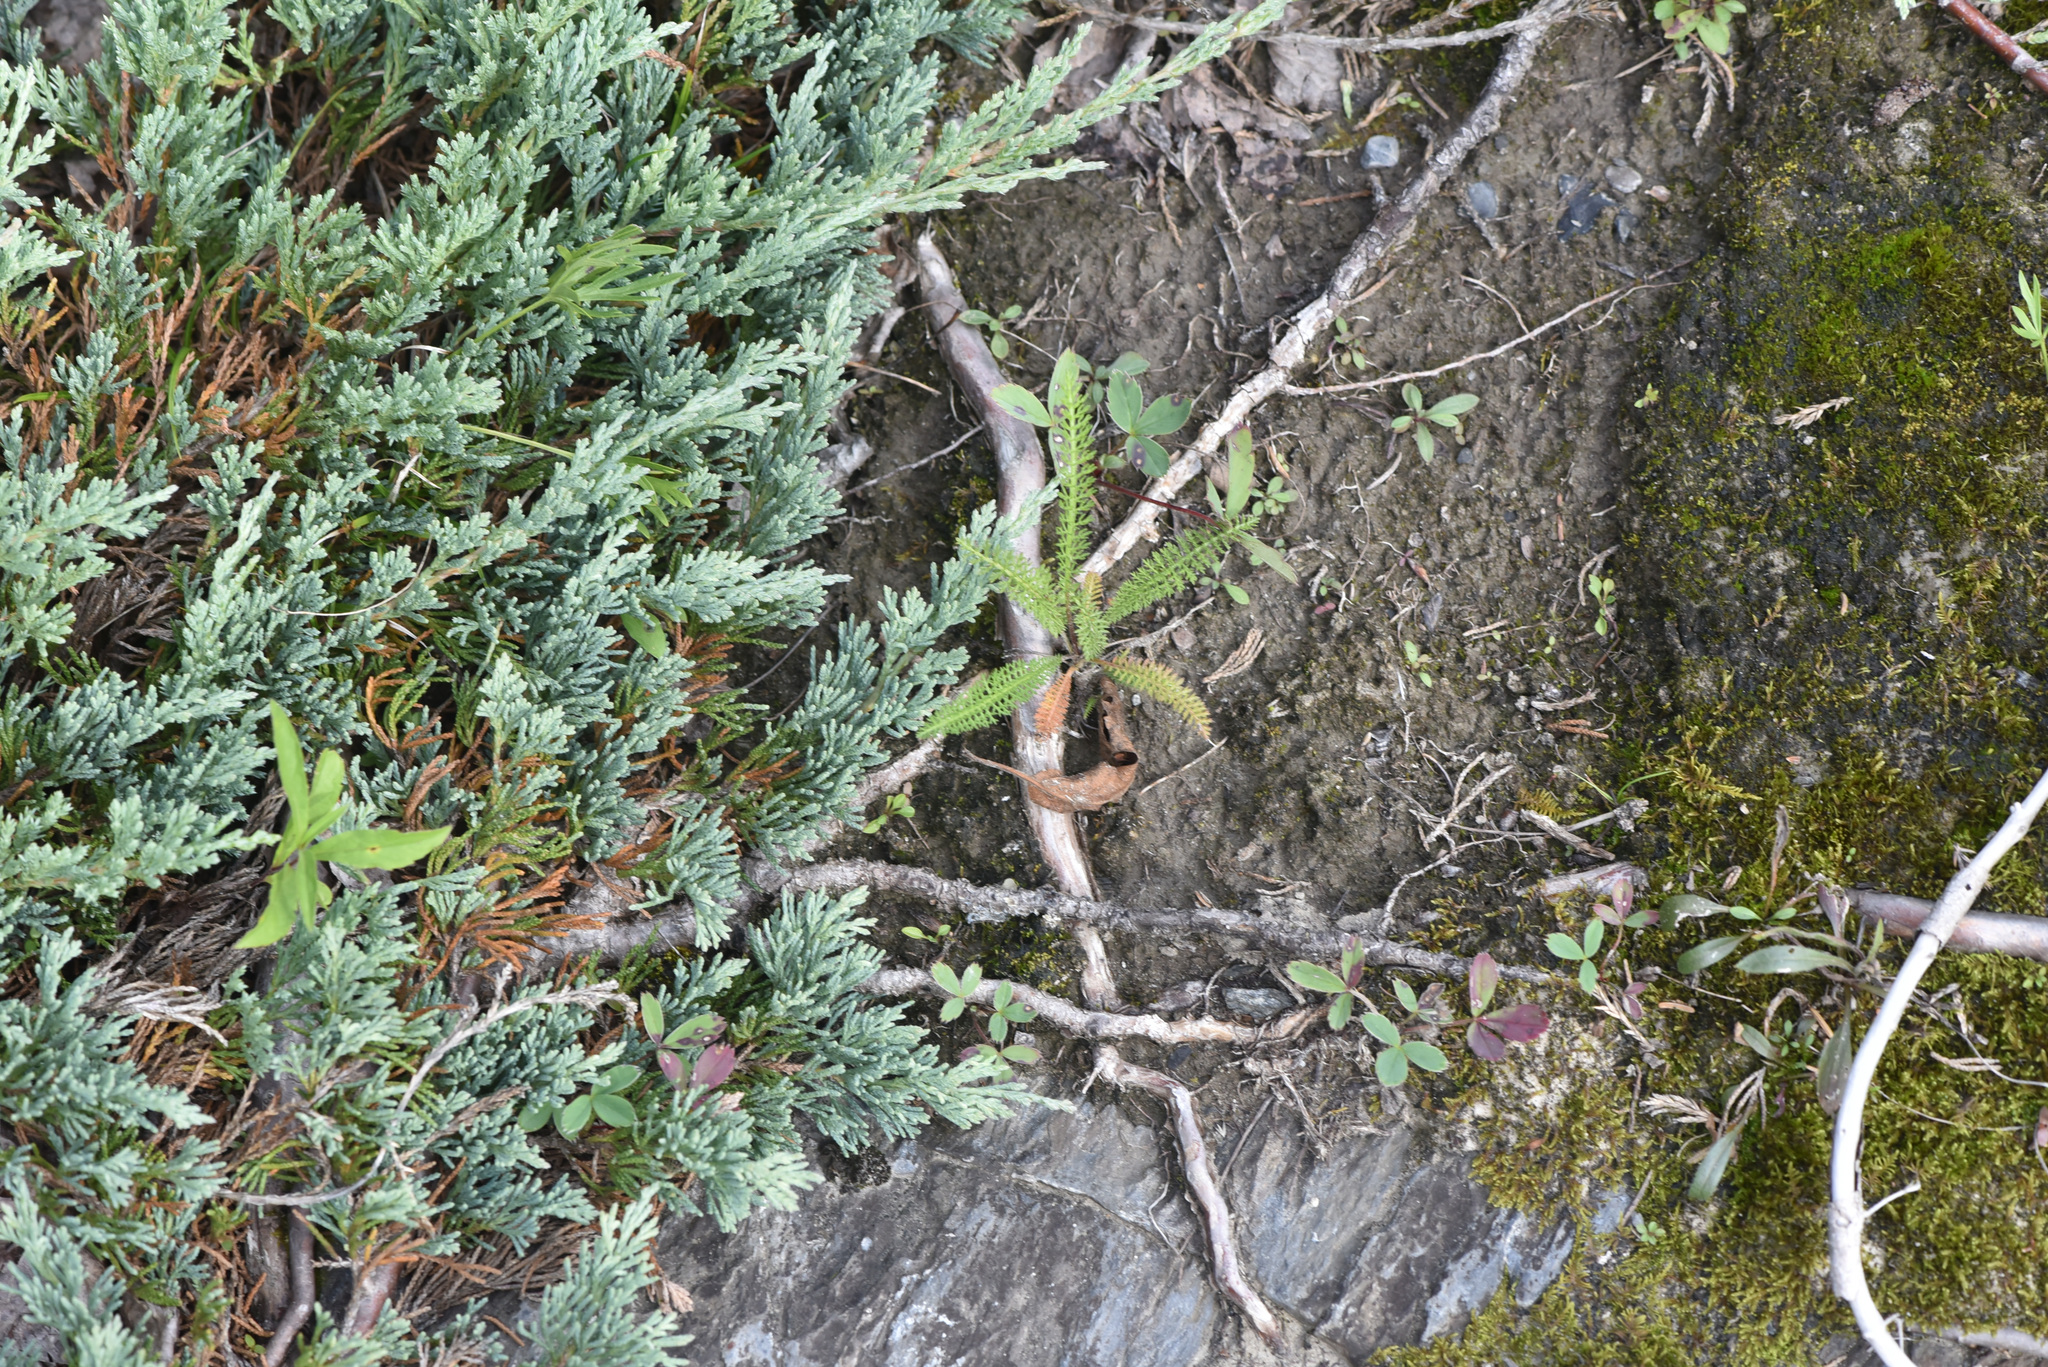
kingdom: Plantae
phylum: Tracheophyta
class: Pinopsida
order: Pinales
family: Cupressaceae
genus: Juniperus
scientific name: Juniperus horizontalis
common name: Creeping juniper
